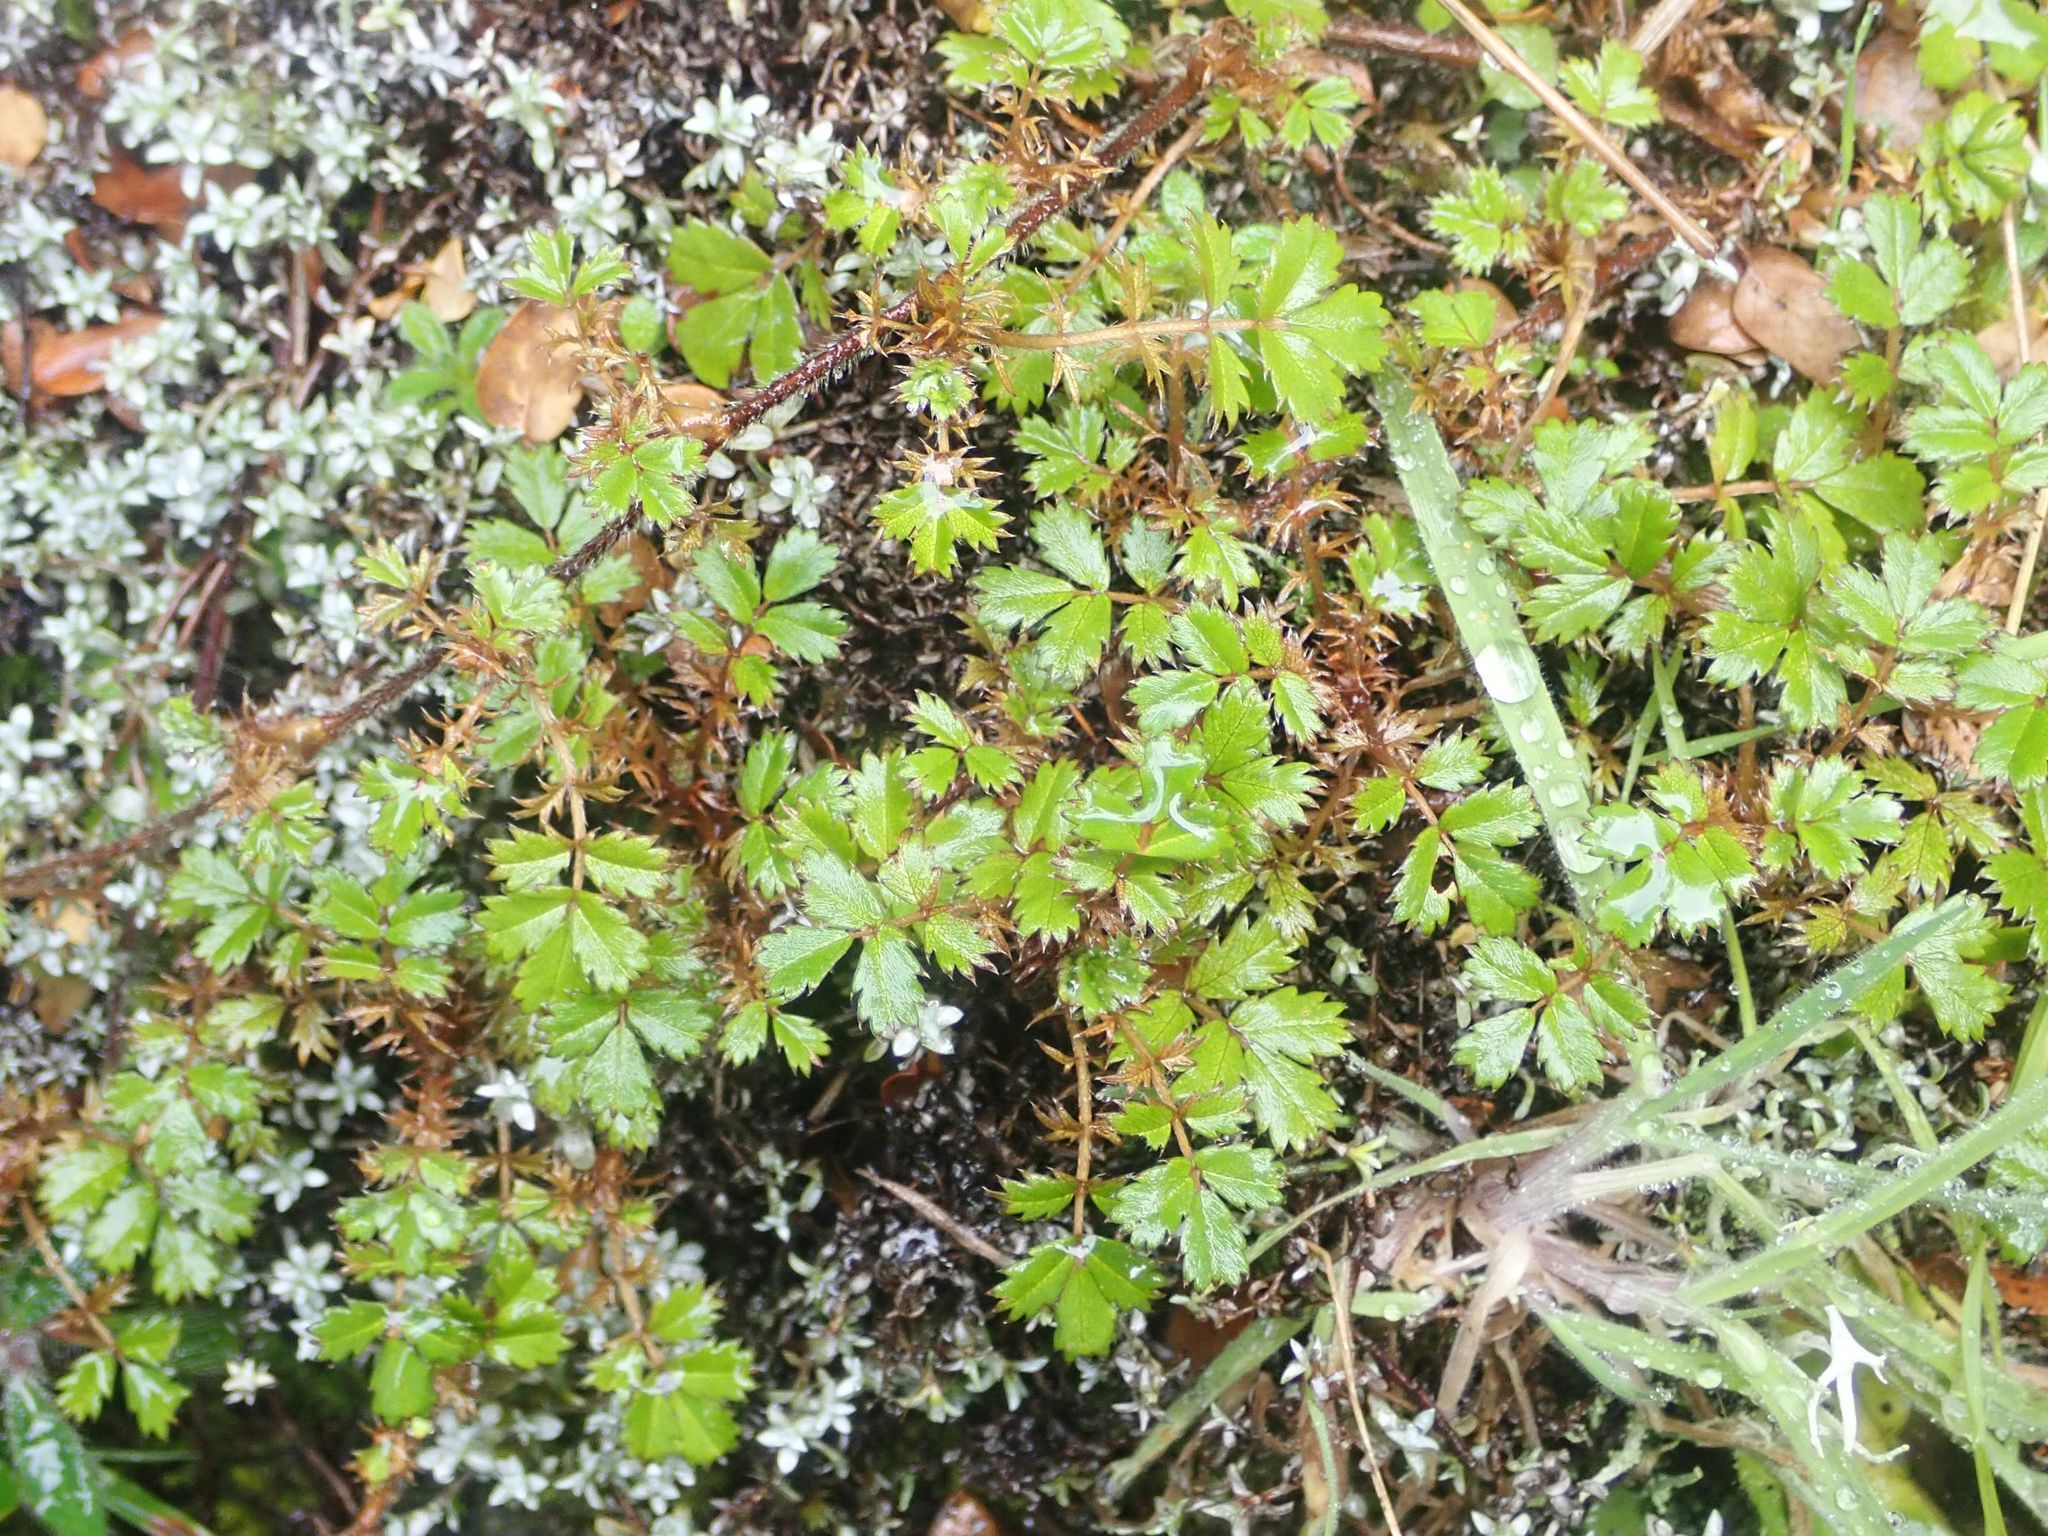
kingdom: Plantae
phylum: Tracheophyta
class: Magnoliopsida
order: Rosales
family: Rosaceae
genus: Acaena
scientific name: Acaena anserinifolia
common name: Bronze pirri-pirri-bur
